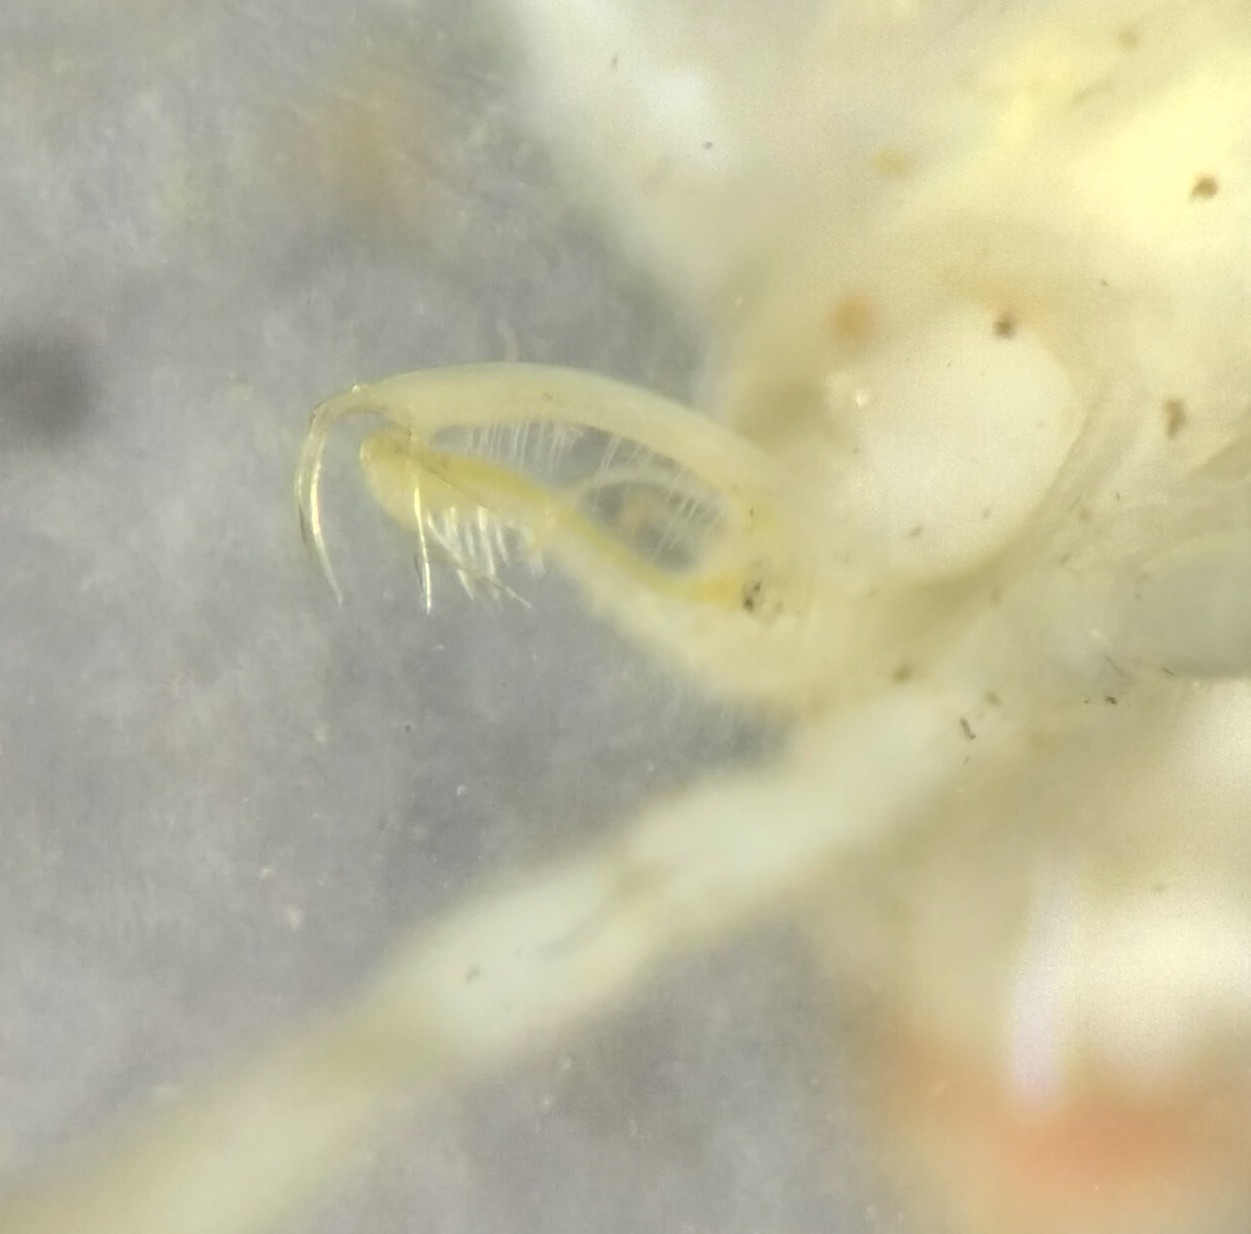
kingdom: Animalia
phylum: Arthropoda
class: Diplopoda
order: Polydesmida
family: Xystodesmidae
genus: Dicellarius
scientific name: Dicellarius paynei
